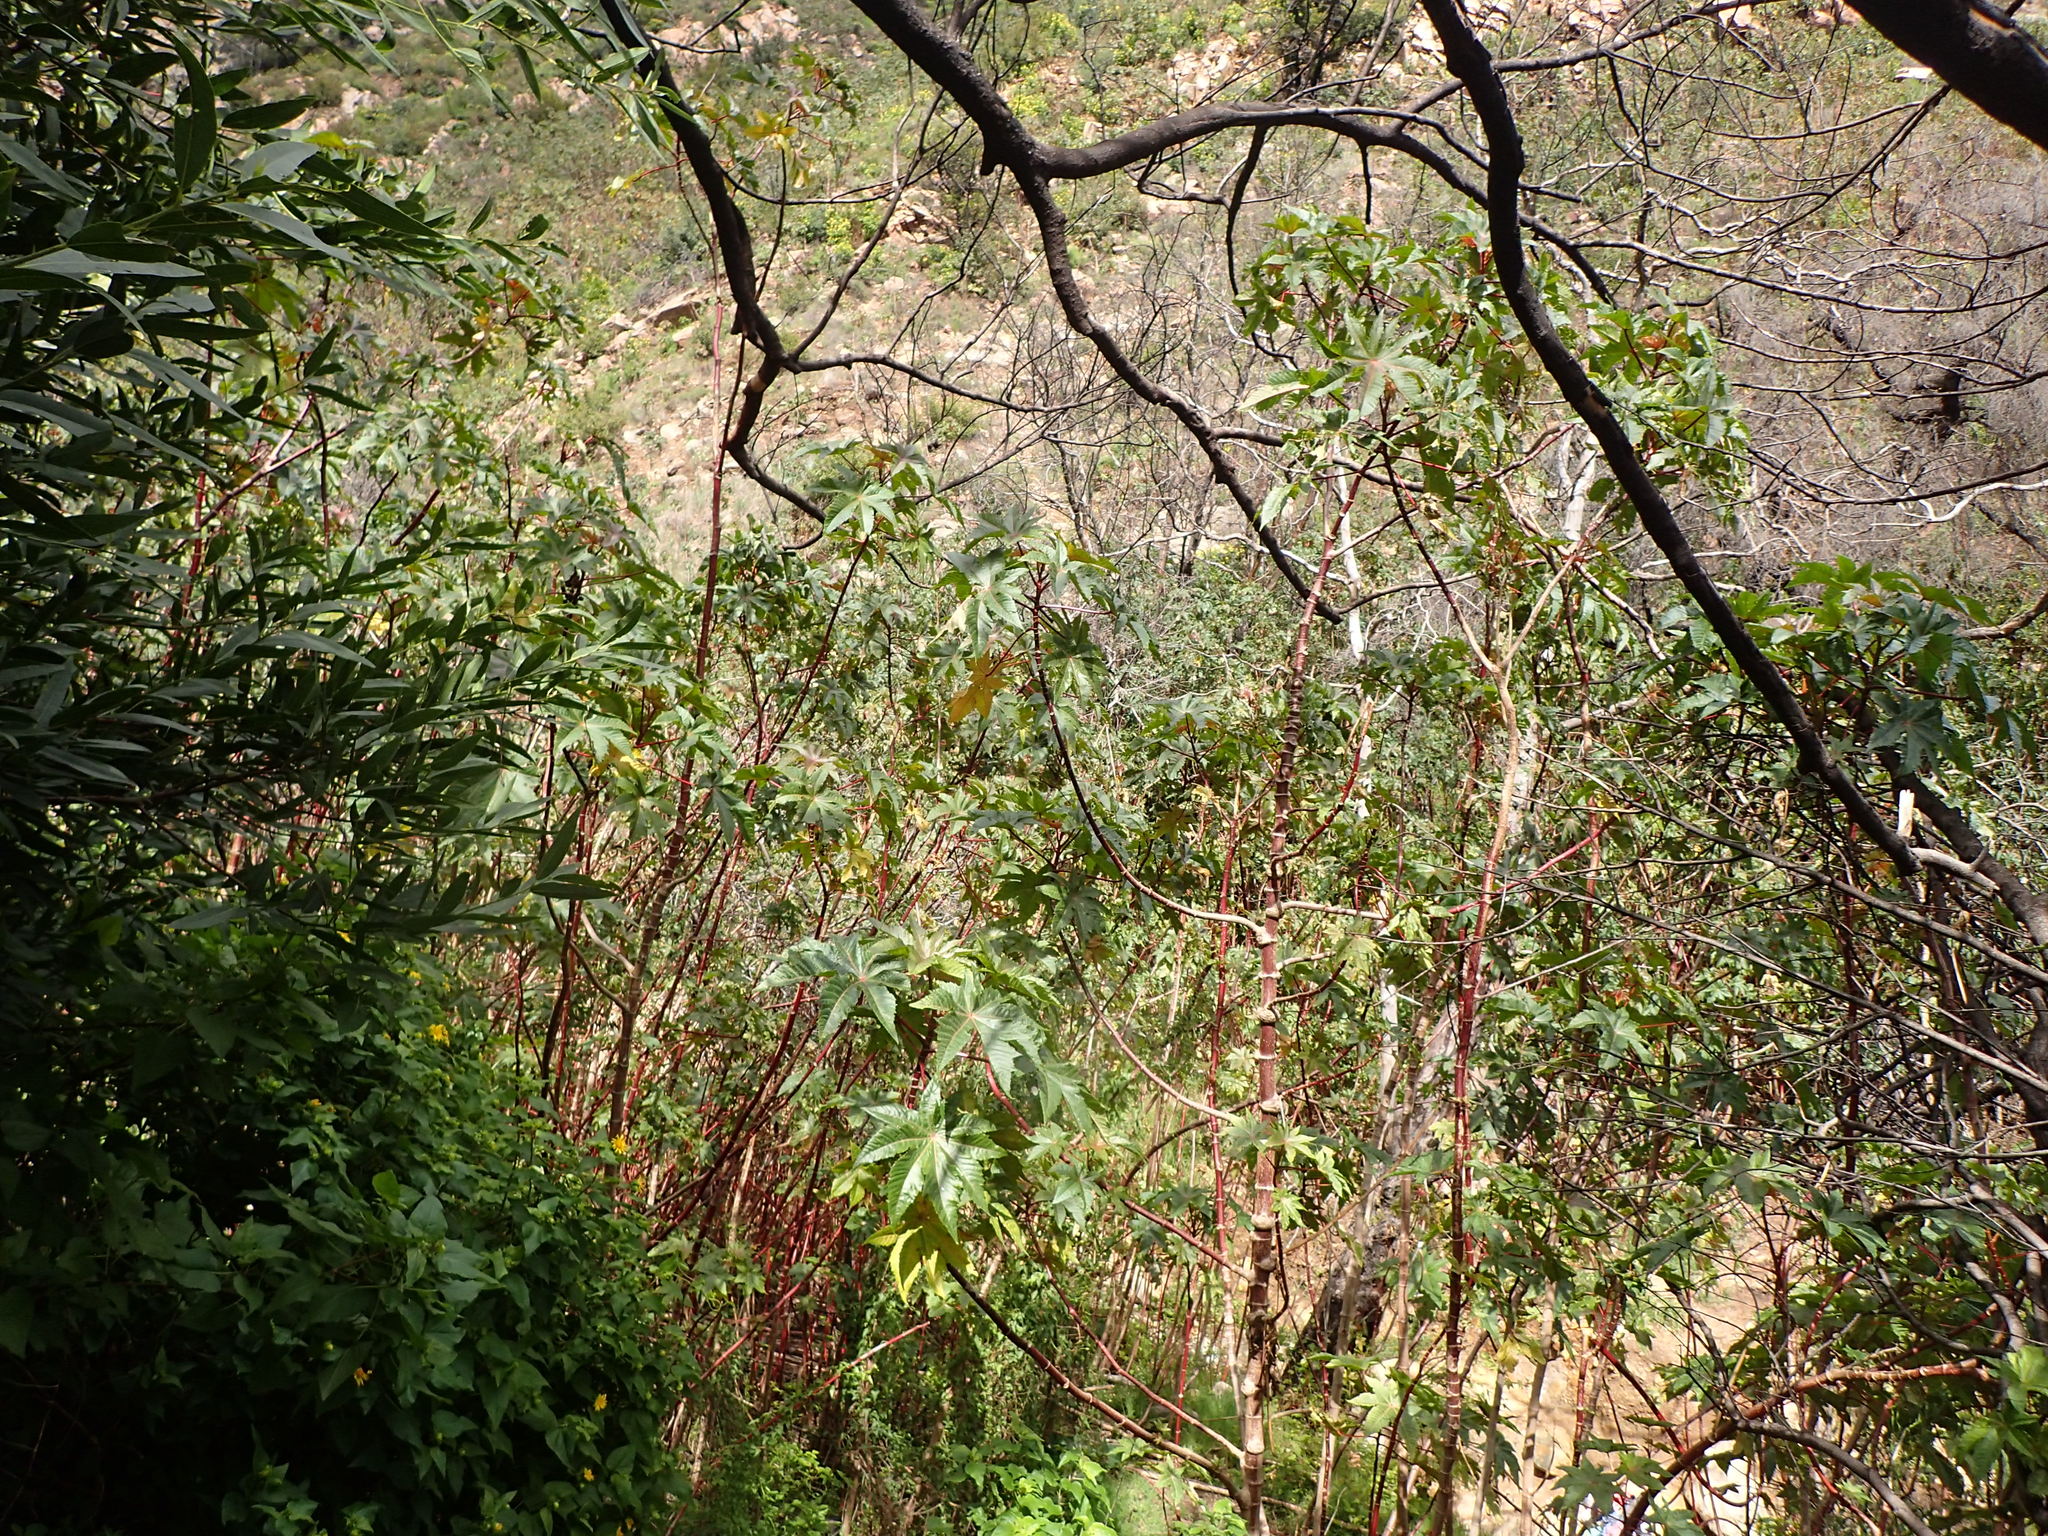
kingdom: Plantae
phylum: Tracheophyta
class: Magnoliopsida
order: Malpighiales
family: Euphorbiaceae
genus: Ricinus
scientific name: Ricinus communis
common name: Castor-oil-plant
